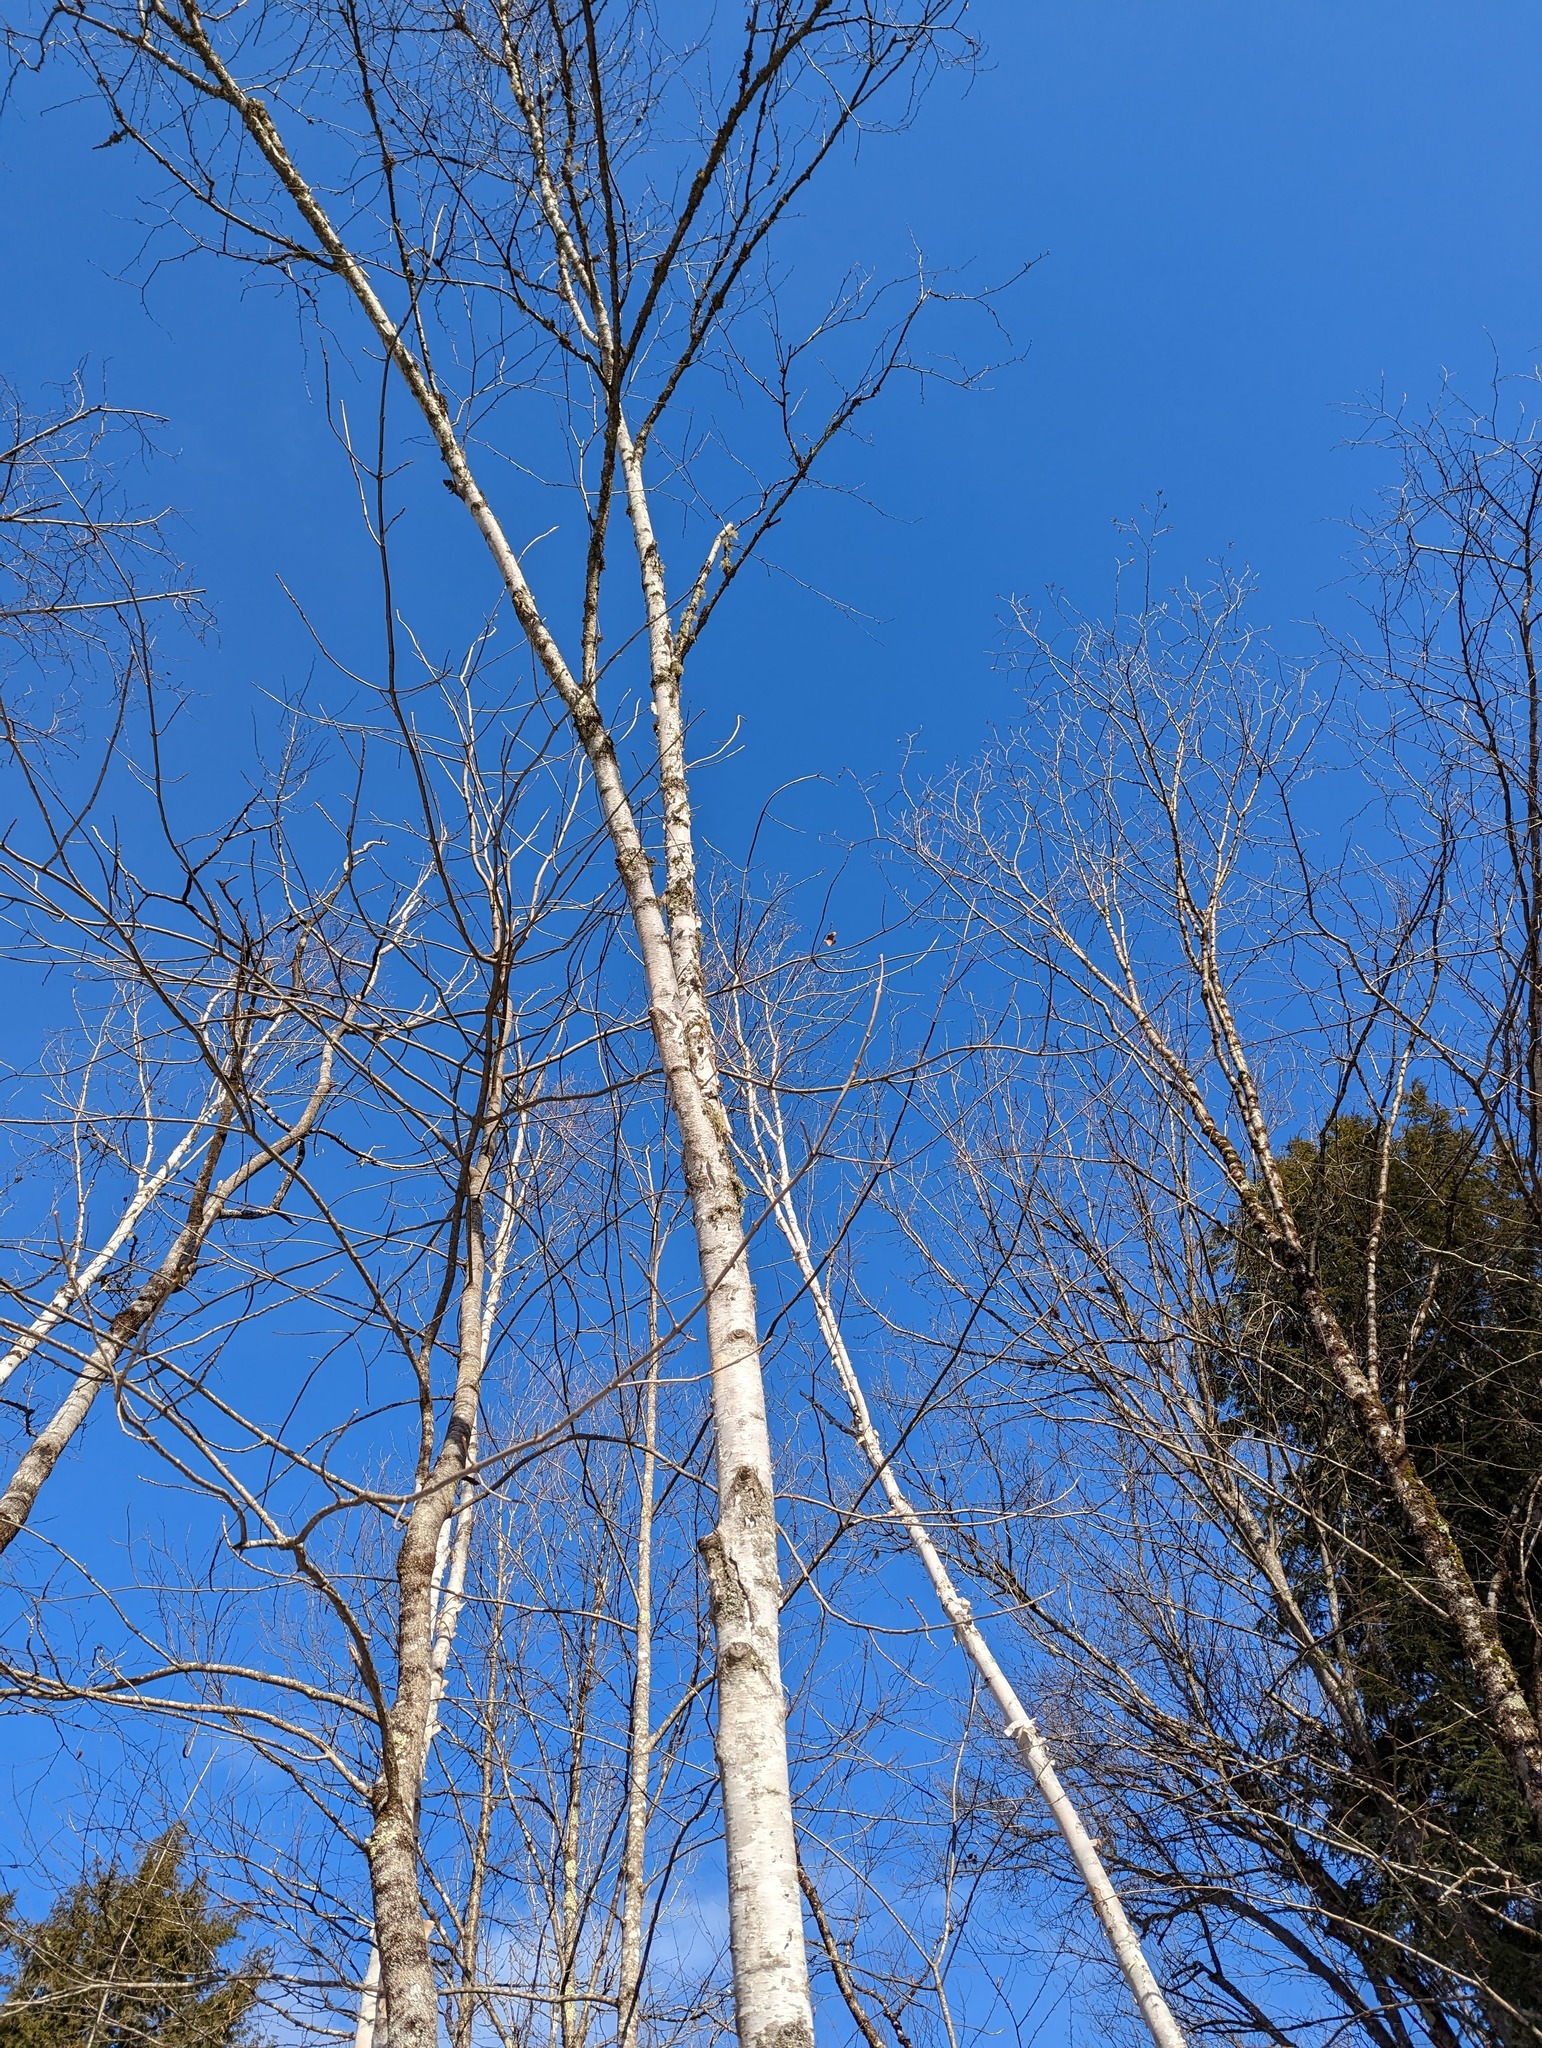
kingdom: Plantae
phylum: Tracheophyta
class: Magnoliopsida
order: Fagales
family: Betulaceae
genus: Betula
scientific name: Betula papyrifera
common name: Paper birch
